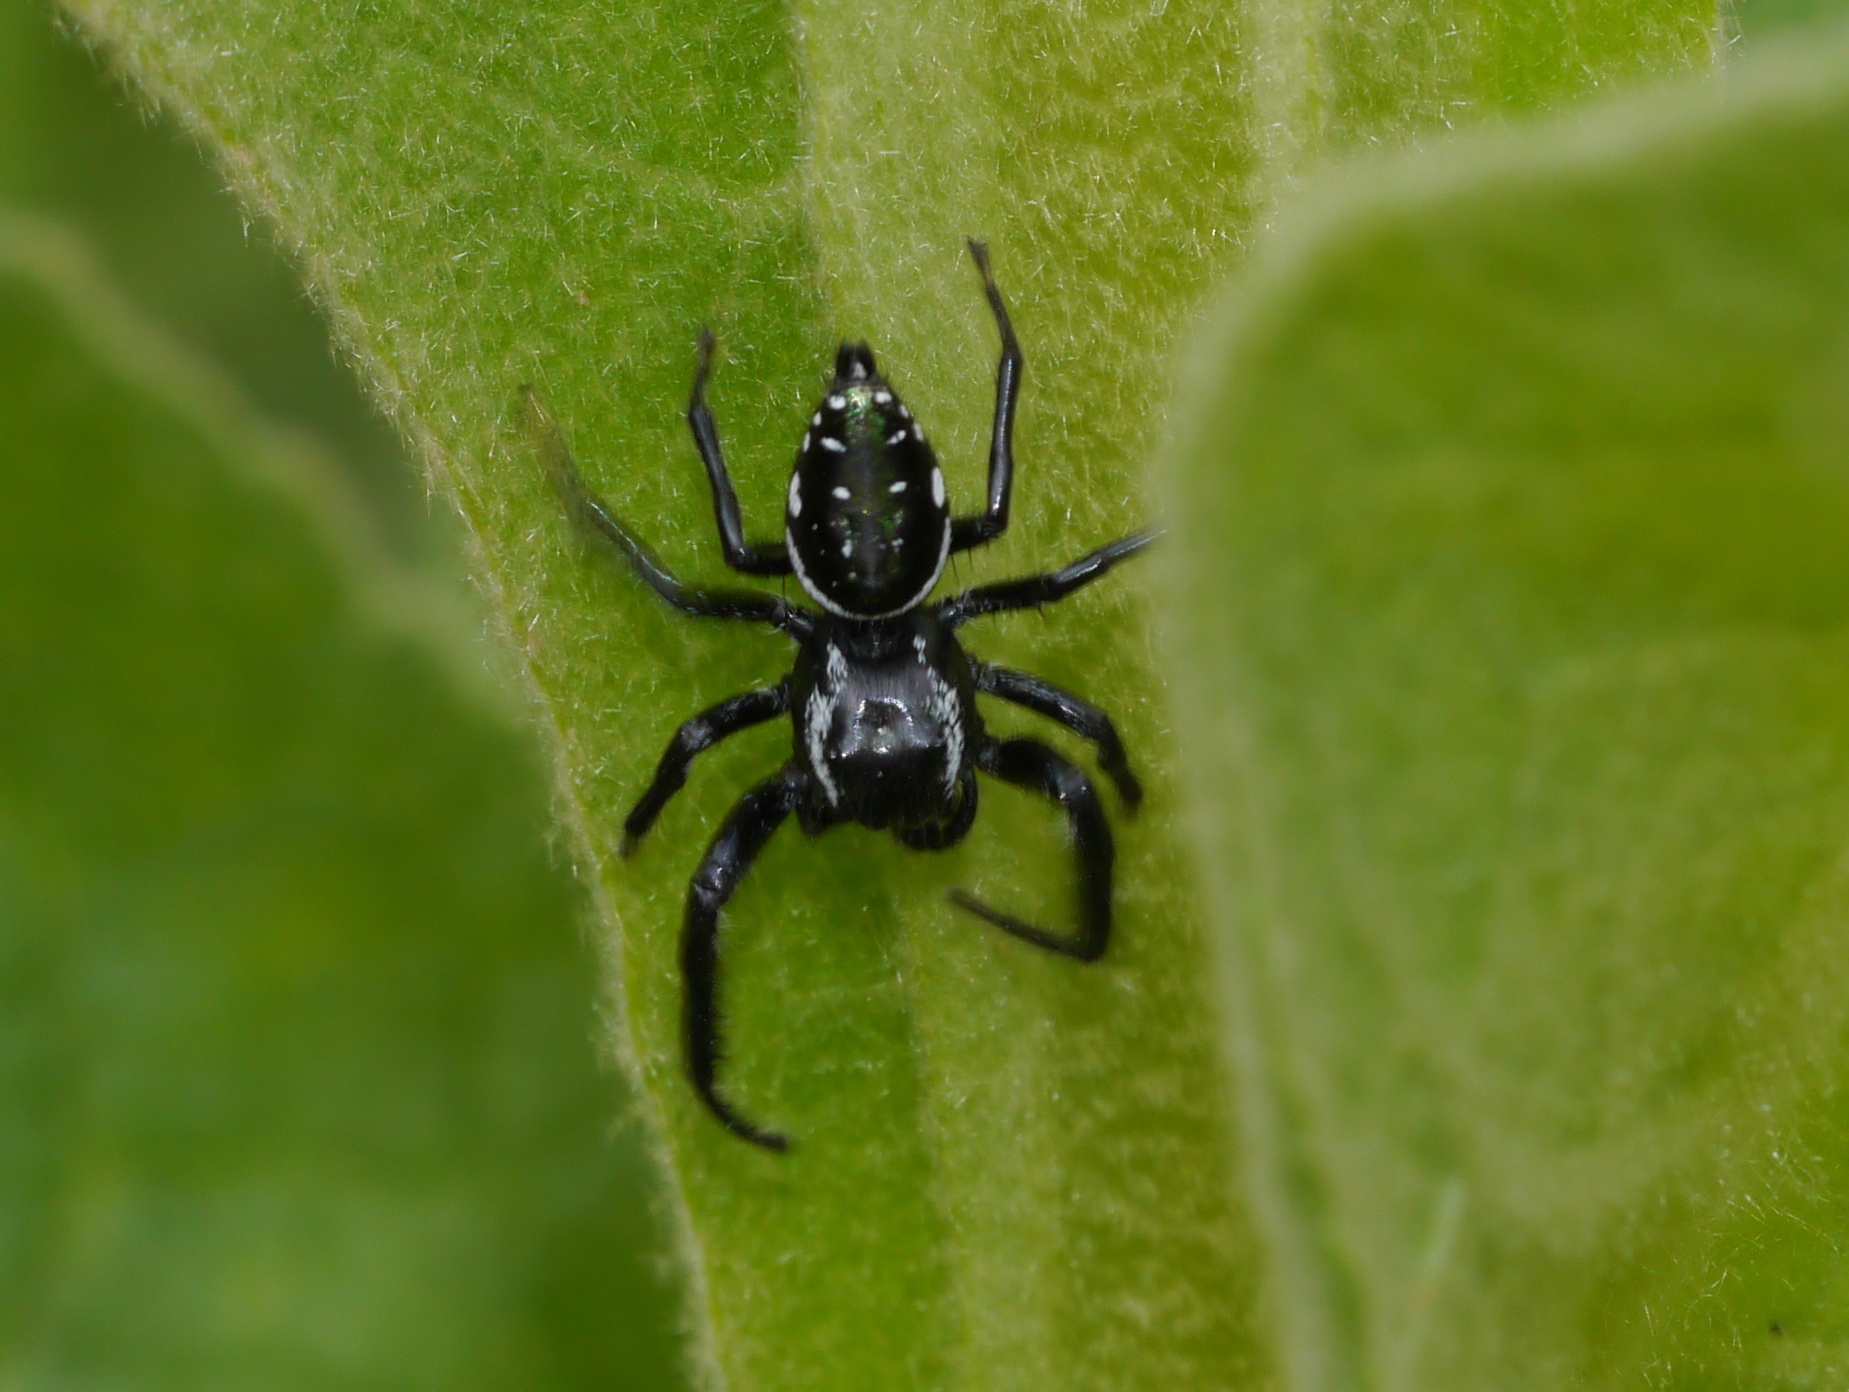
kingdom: Animalia
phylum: Arthropoda
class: Arachnida
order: Araneae
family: Salticidae
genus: Paraphidippus
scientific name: Paraphidippus aurantius
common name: Jumping spiders
